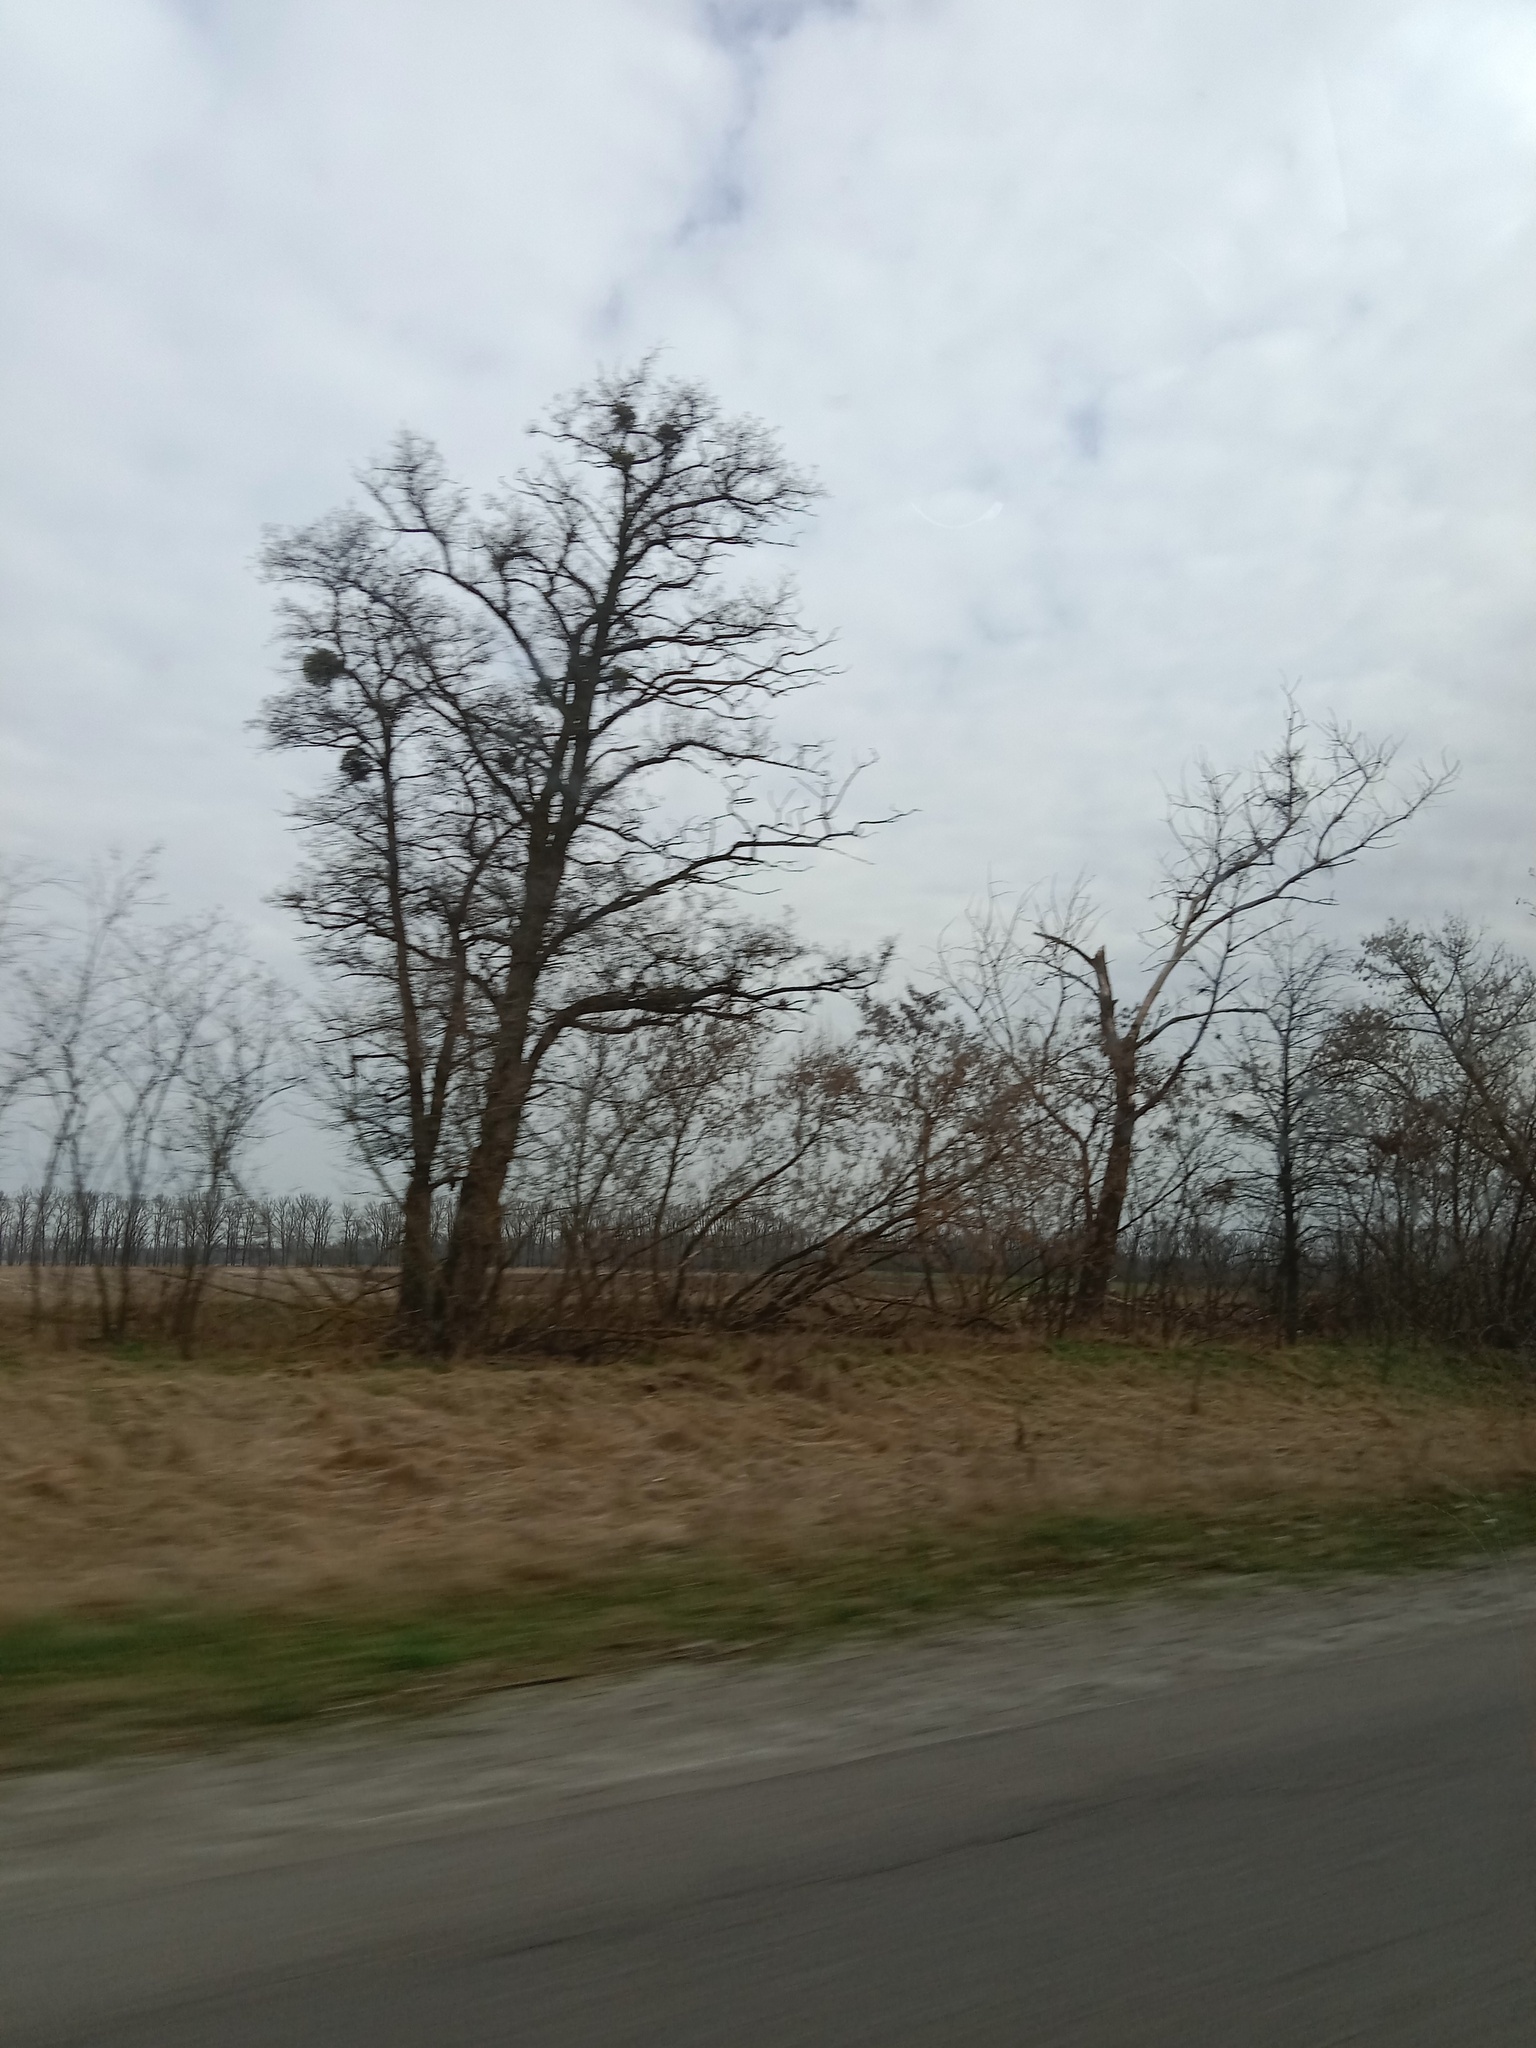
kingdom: Plantae
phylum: Tracheophyta
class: Magnoliopsida
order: Santalales
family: Viscaceae
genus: Viscum
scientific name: Viscum album
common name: Mistletoe
